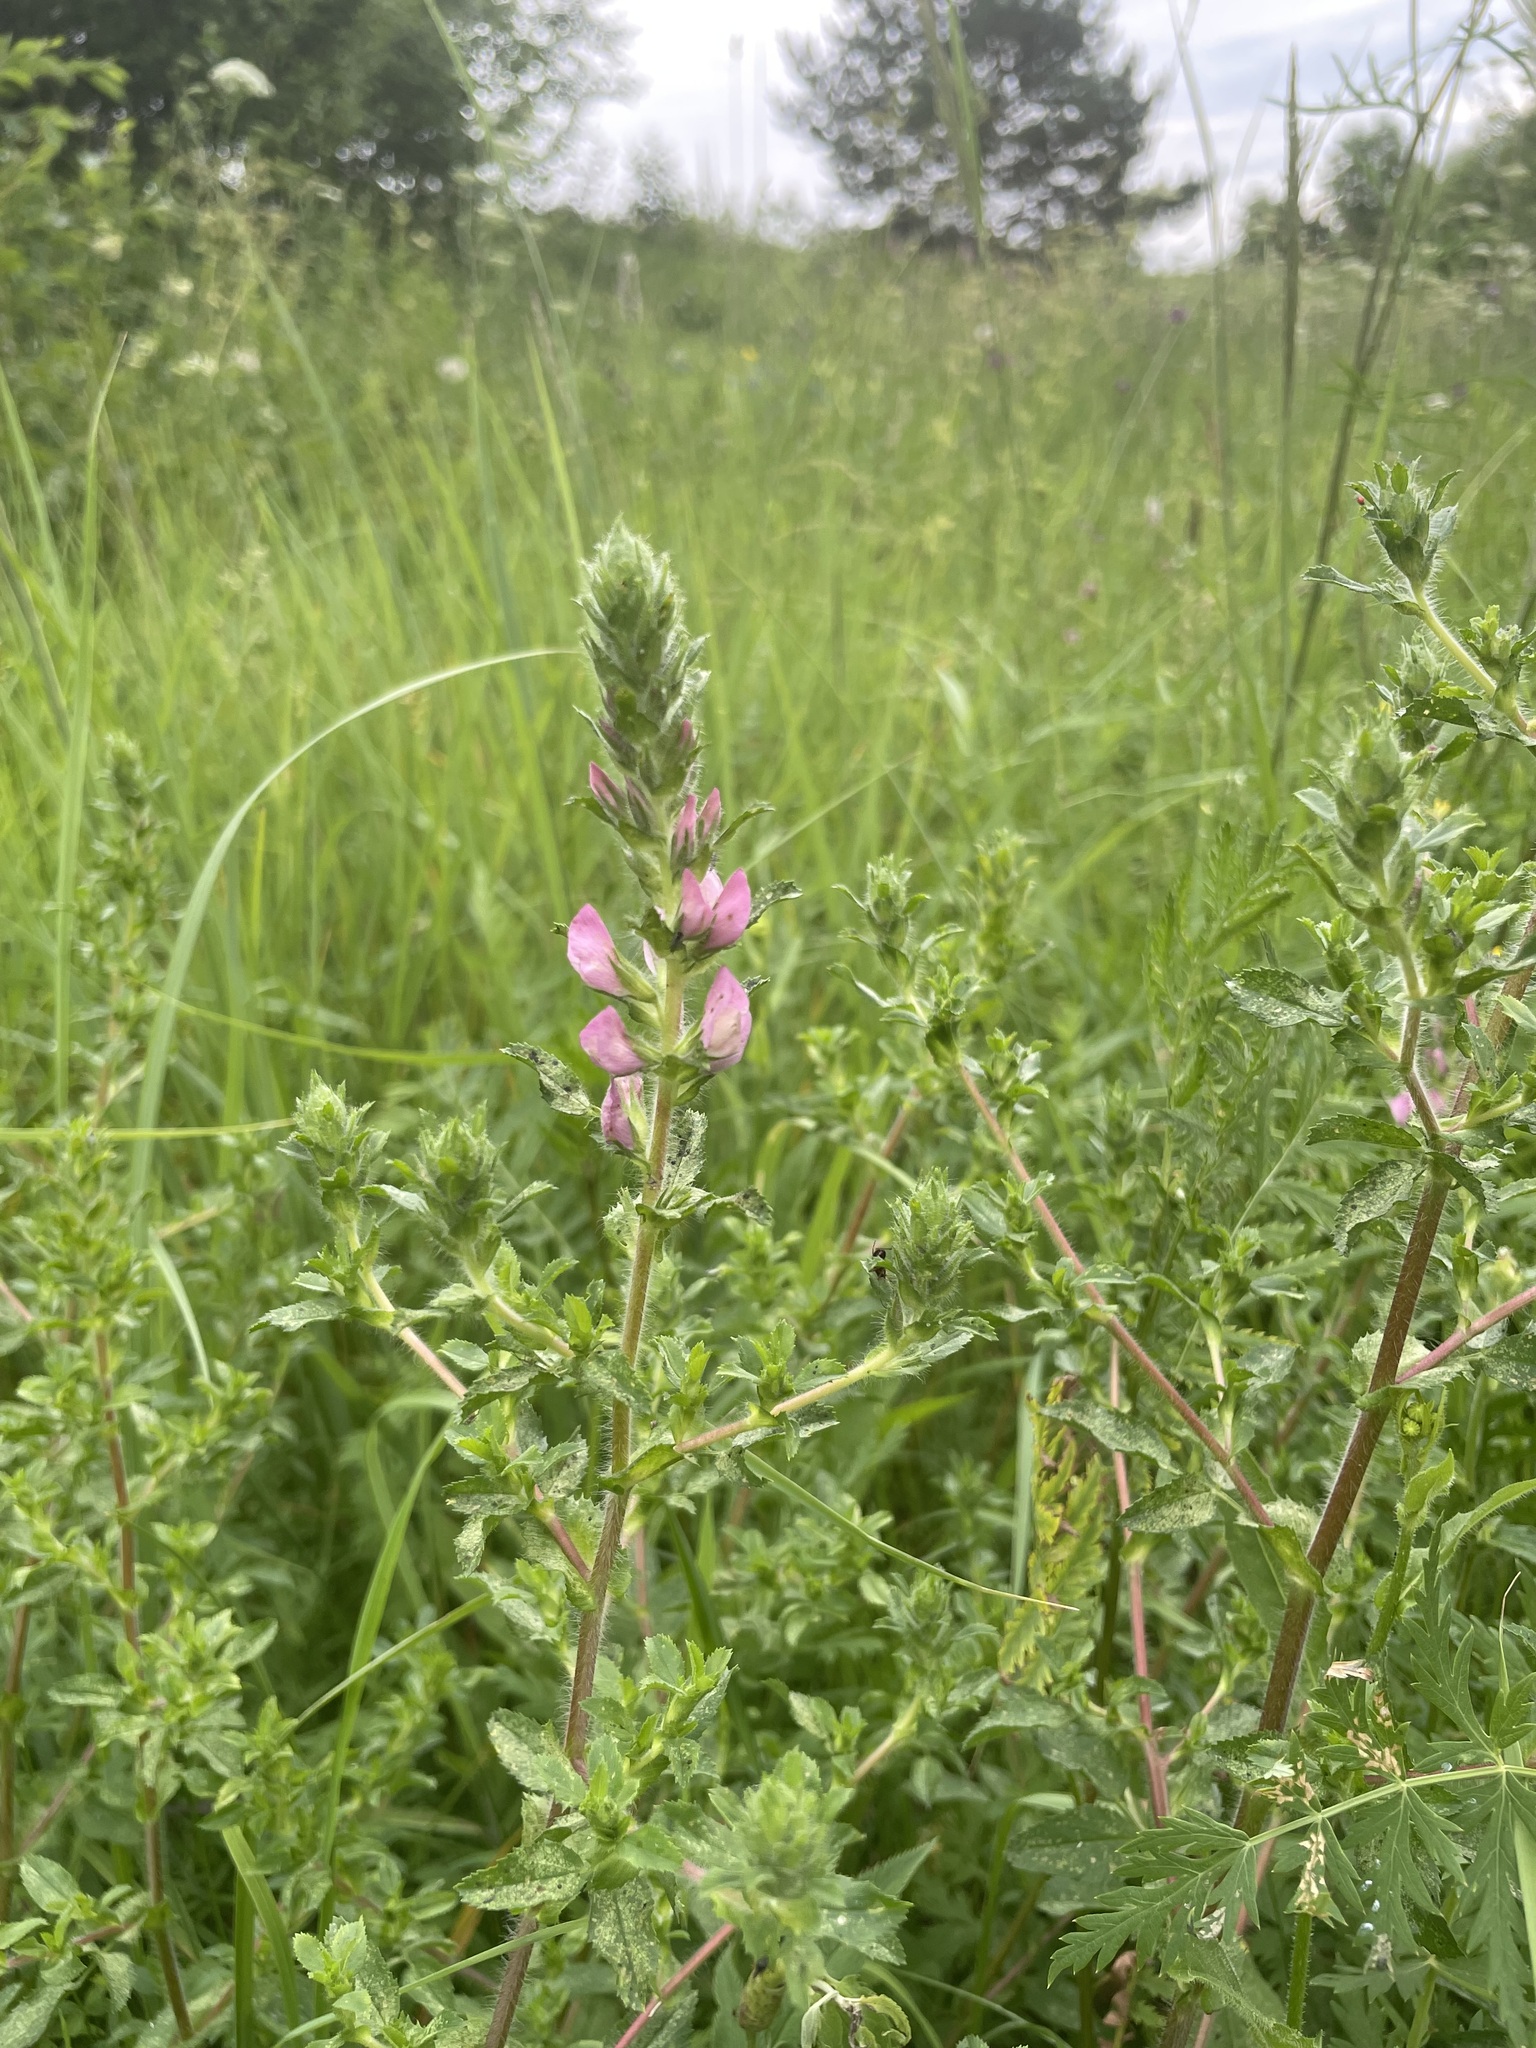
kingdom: Plantae
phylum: Tracheophyta
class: Magnoliopsida
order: Fabales
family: Fabaceae
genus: Ononis
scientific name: Ononis arvensis
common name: Field restharrow
